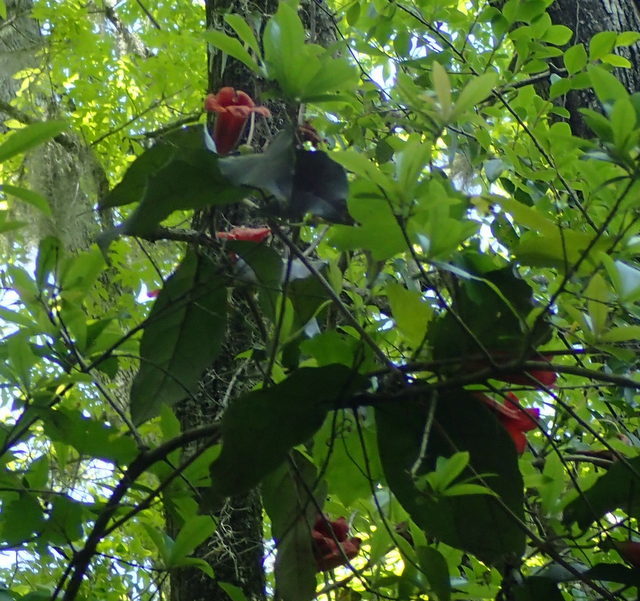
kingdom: Plantae
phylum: Tracheophyta
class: Magnoliopsida
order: Lamiales
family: Bignoniaceae
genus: Bignonia
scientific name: Bignonia capreolata
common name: Crossvine
